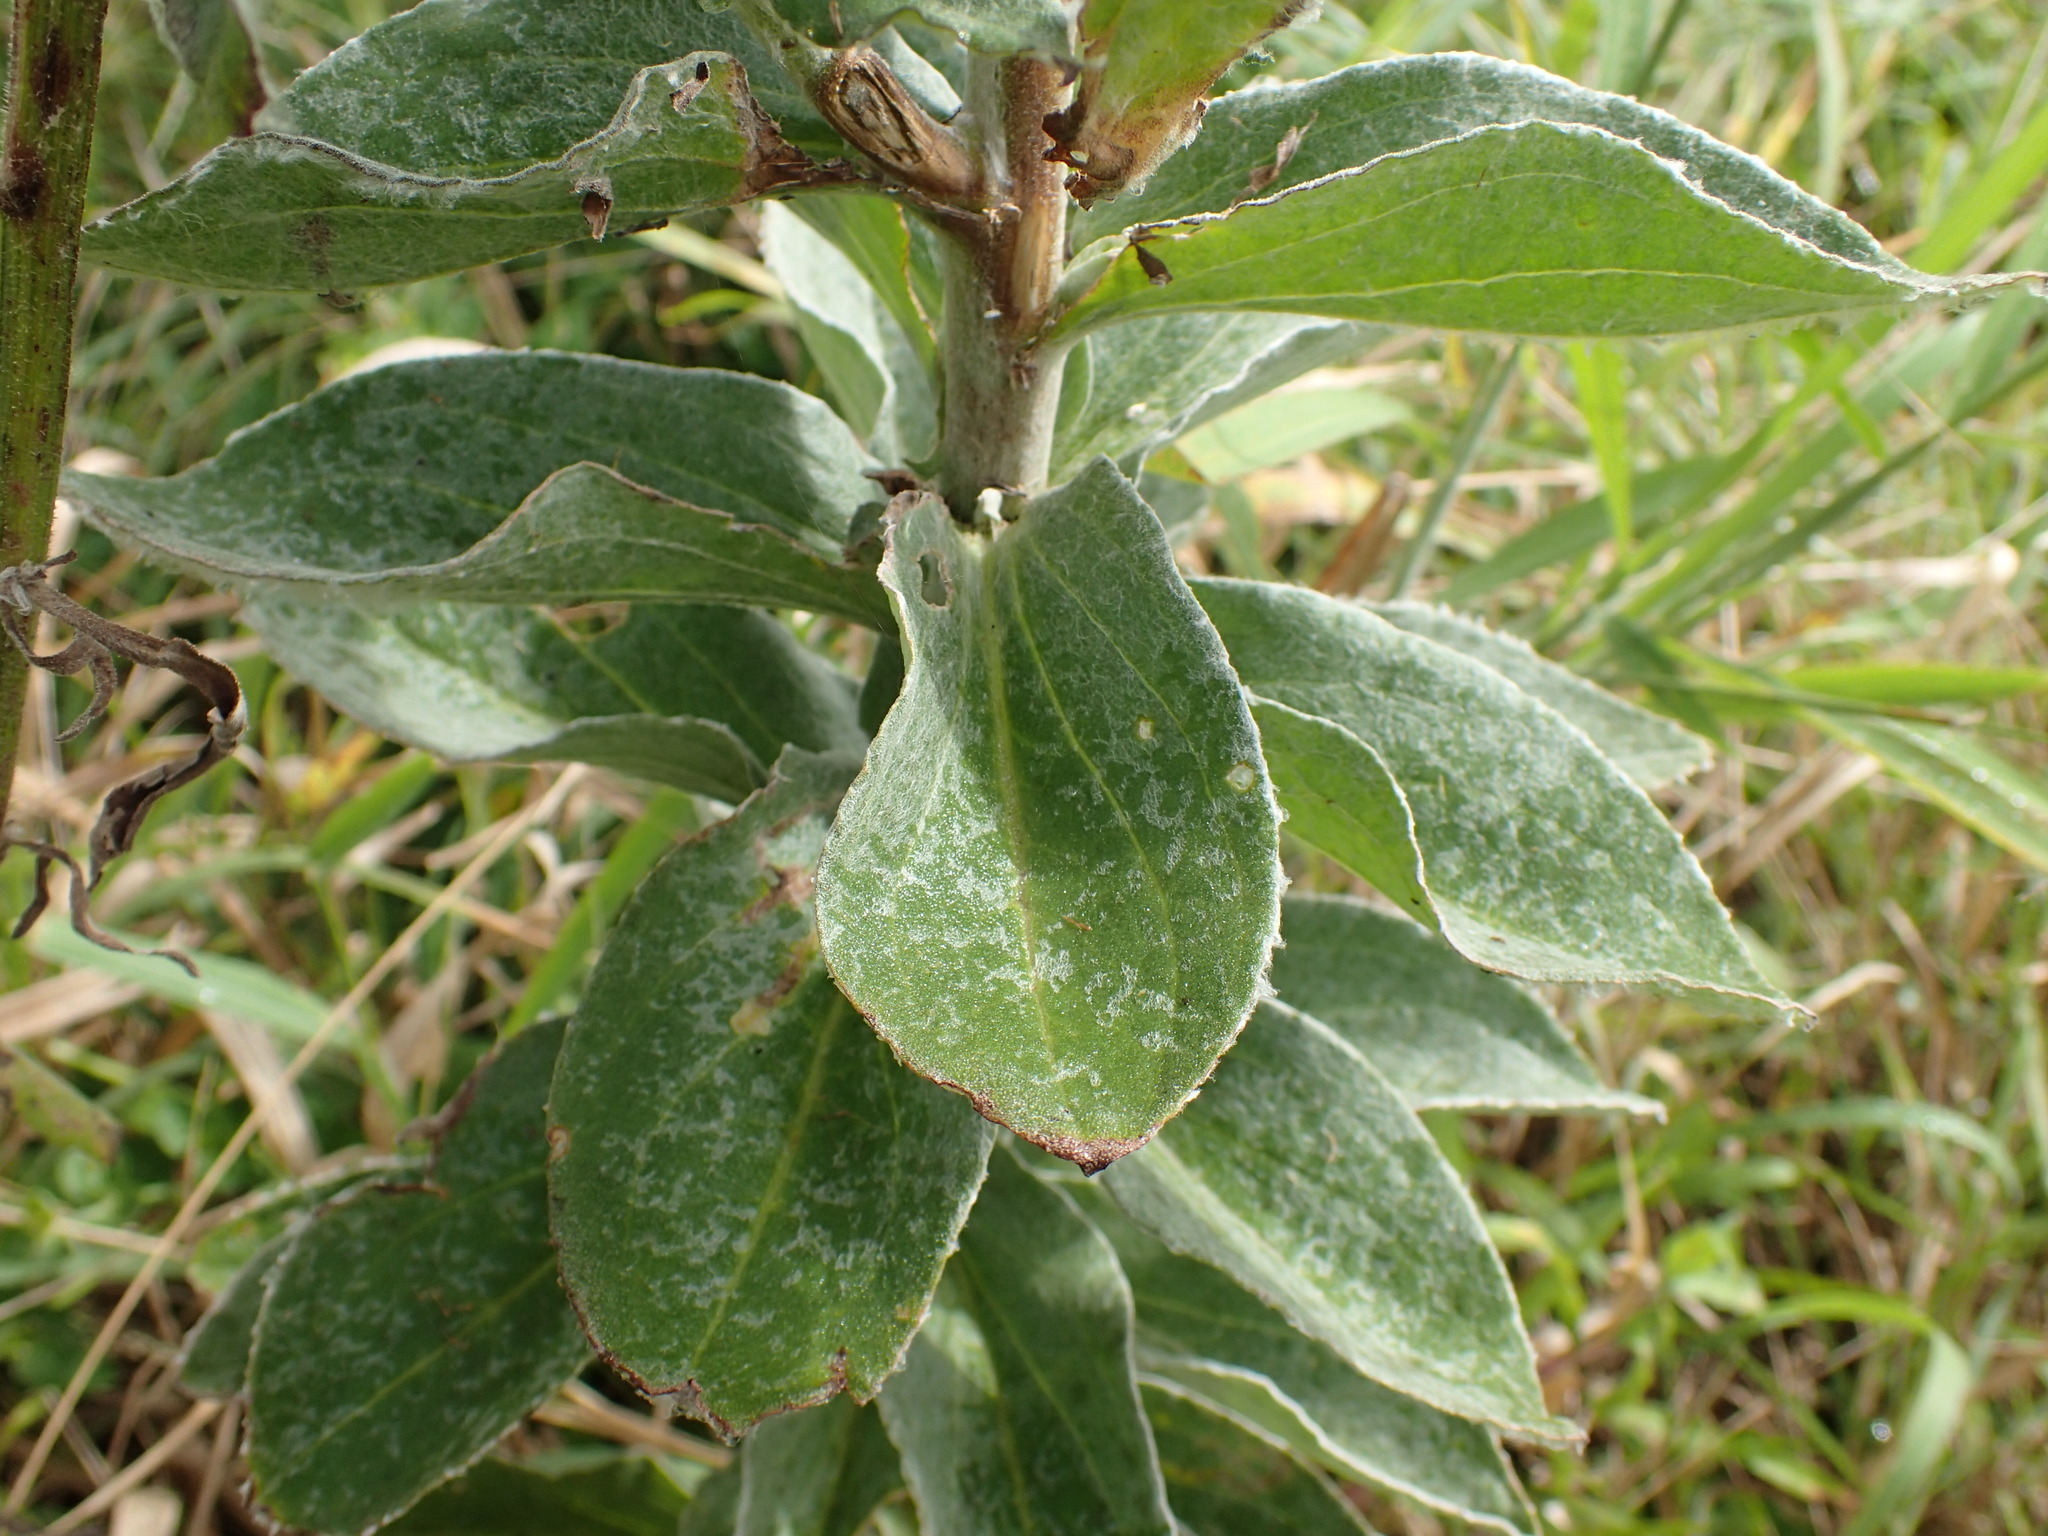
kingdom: Plantae
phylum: Tracheophyta
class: Magnoliopsida
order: Asterales
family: Asteraceae
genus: Helichrysum
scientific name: Helichrysum decorum
